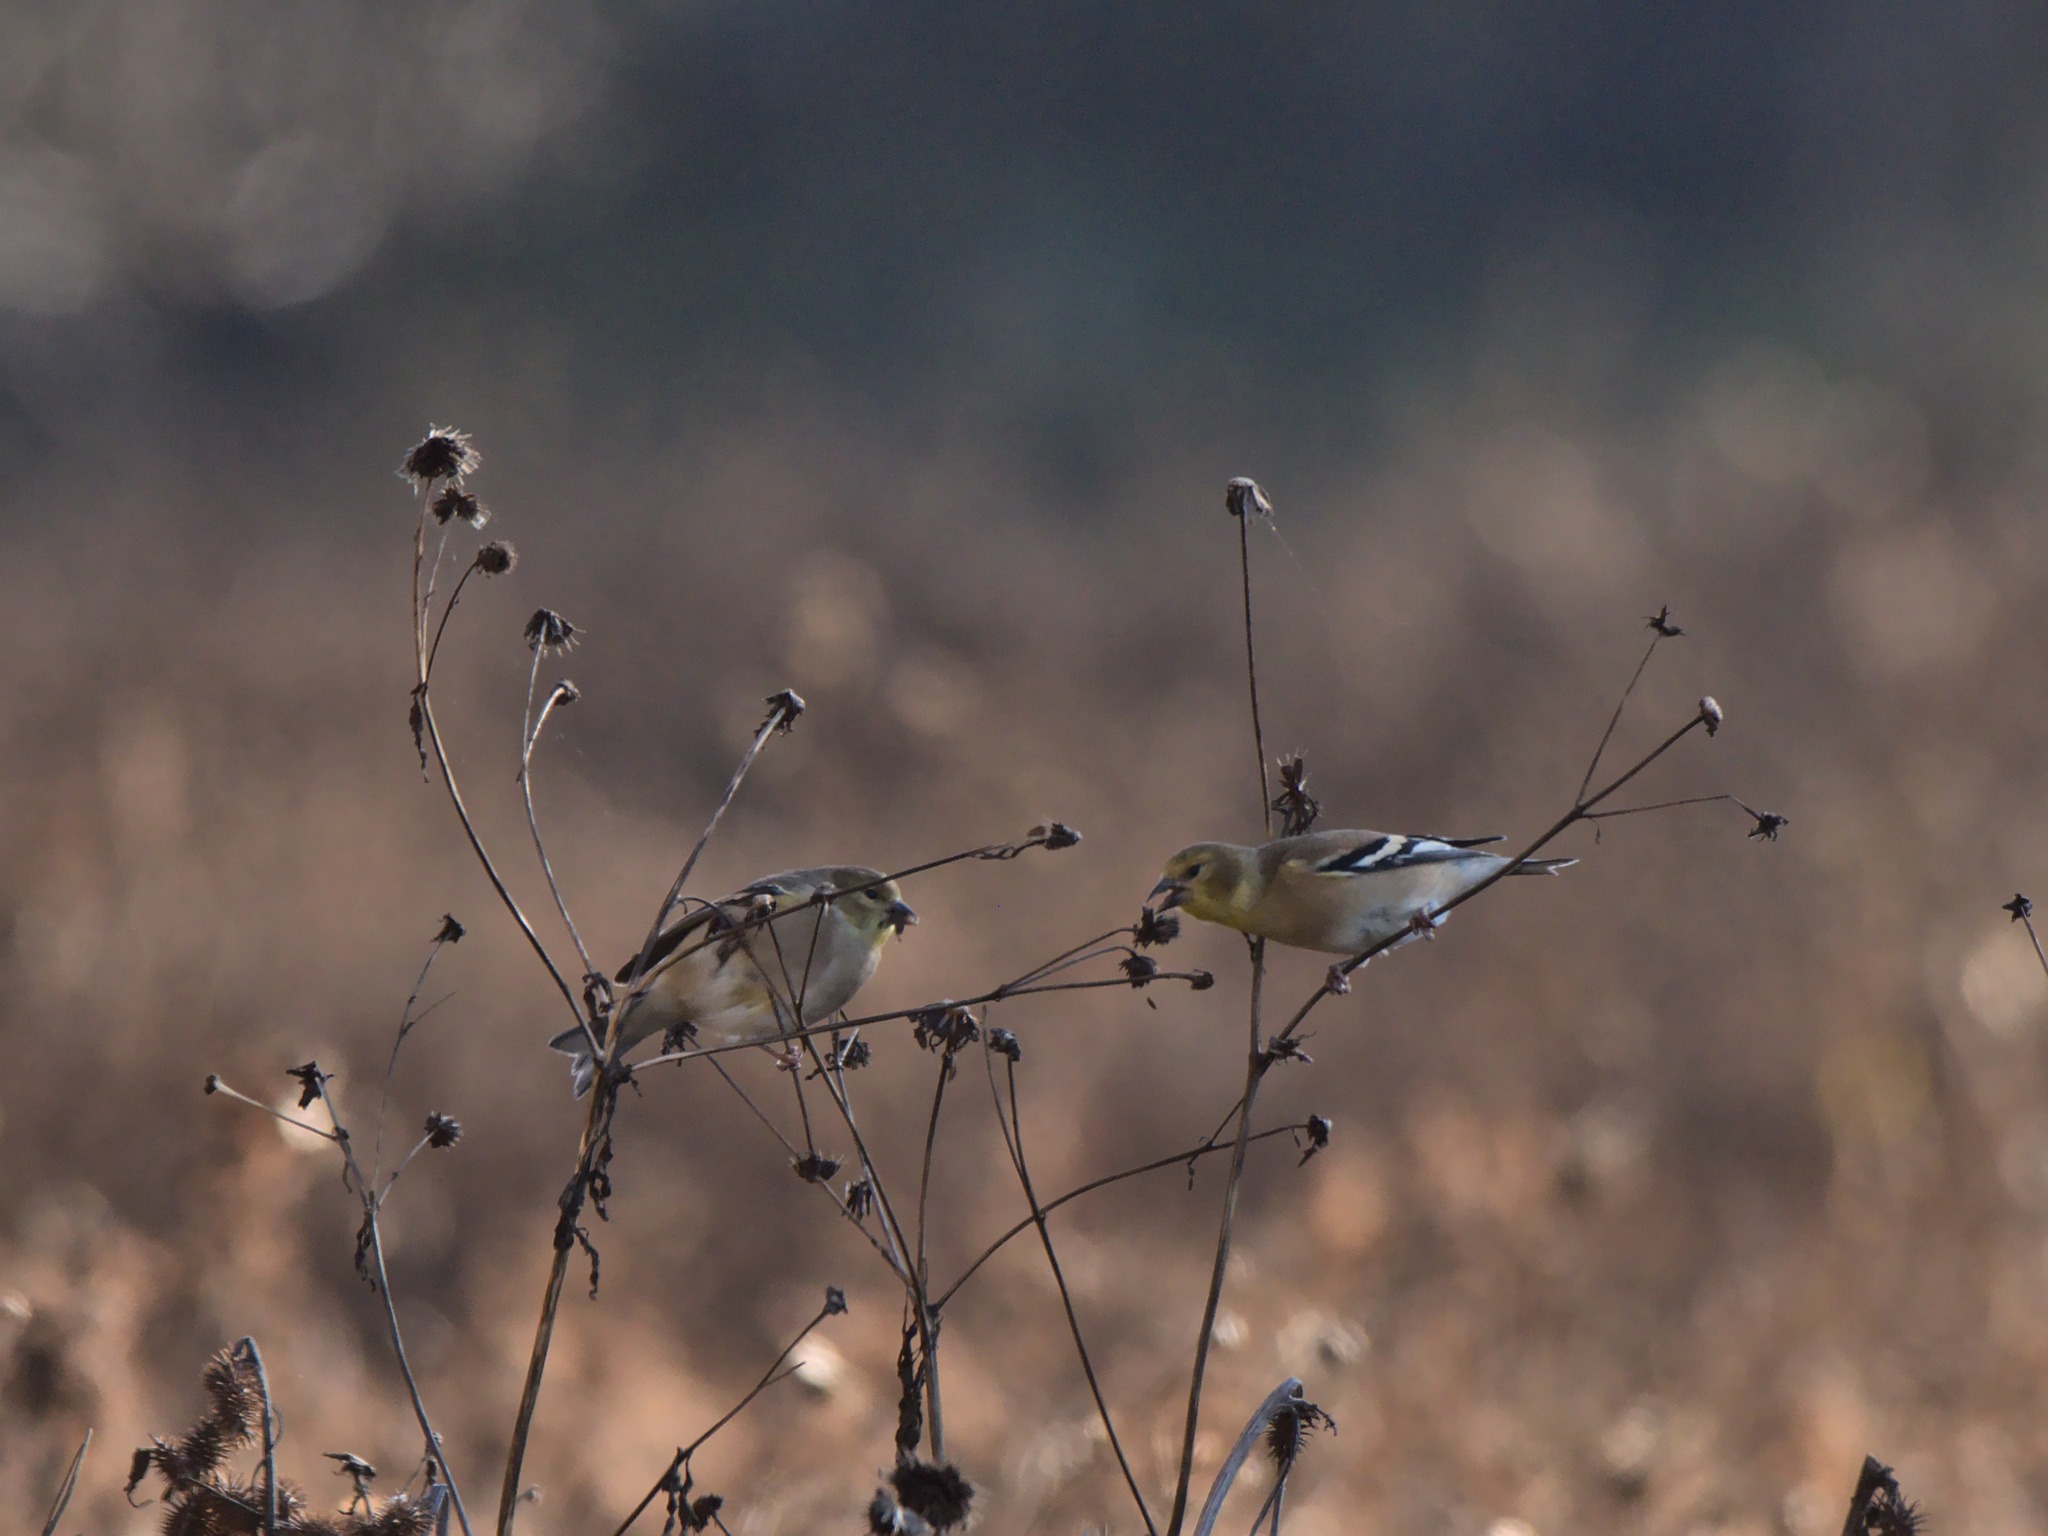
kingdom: Animalia
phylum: Chordata
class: Aves
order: Passeriformes
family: Fringillidae
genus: Spinus
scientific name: Spinus tristis
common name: American goldfinch
